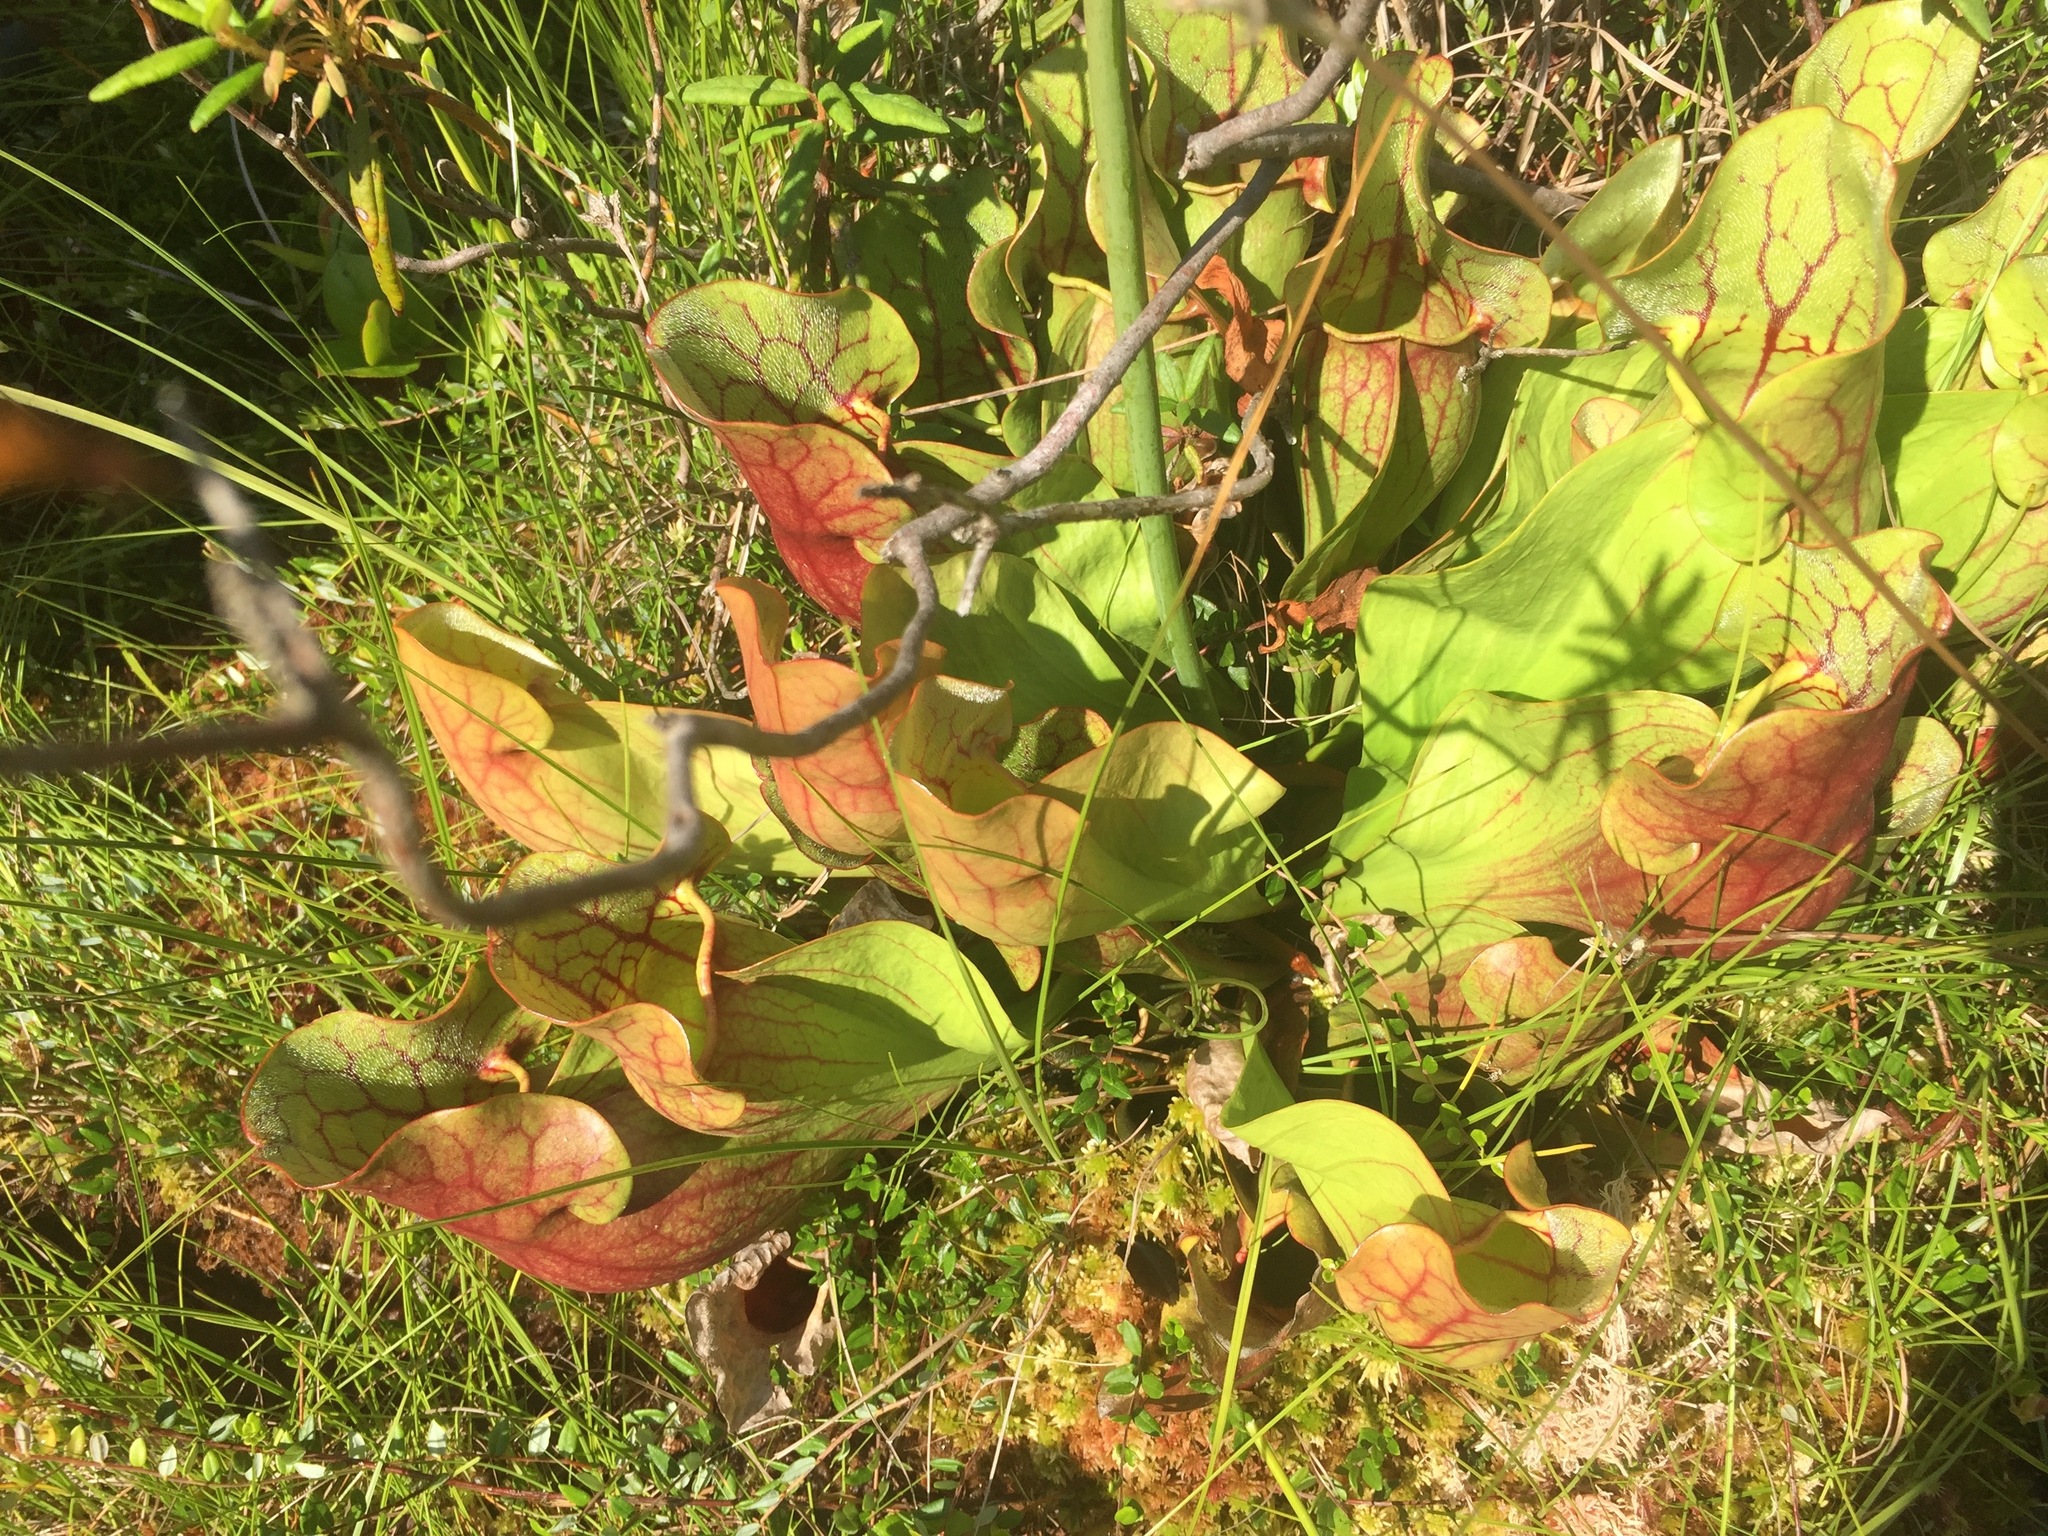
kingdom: Plantae
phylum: Tracheophyta
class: Magnoliopsida
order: Ericales
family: Sarraceniaceae
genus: Sarracenia
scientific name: Sarracenia purpurea
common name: Pitcherplant
